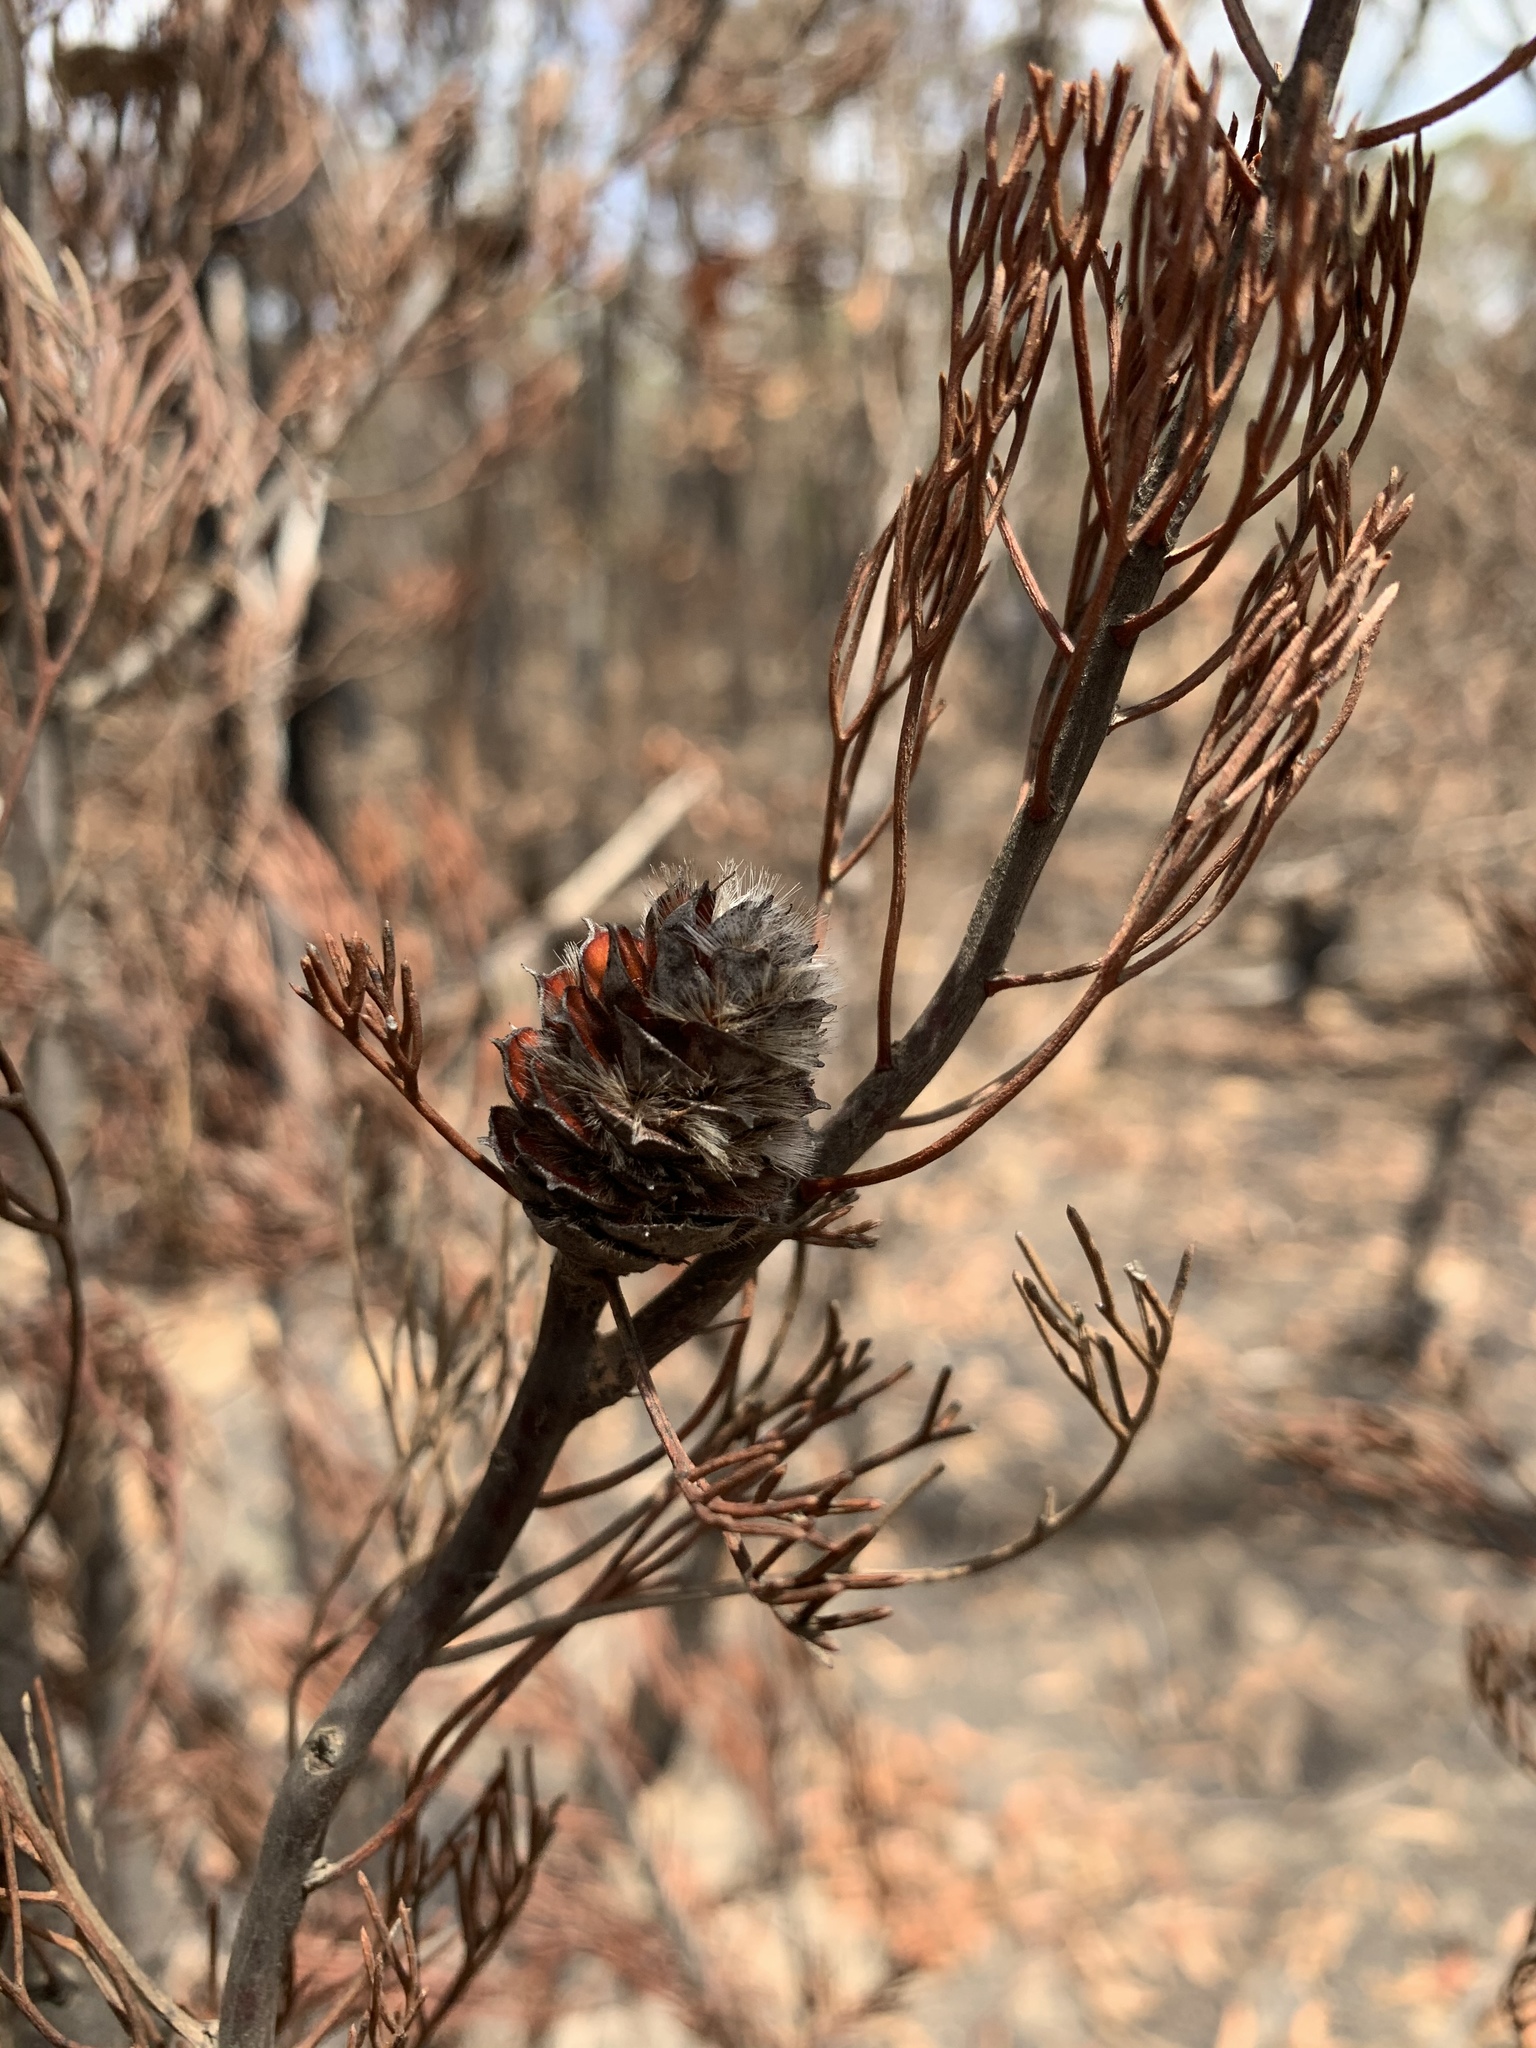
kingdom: Plantae
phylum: Tracheophyta
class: Magnoliopsida
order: Proteales
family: Proteaceae
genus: Petrophile
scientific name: Petrophile pulchella
